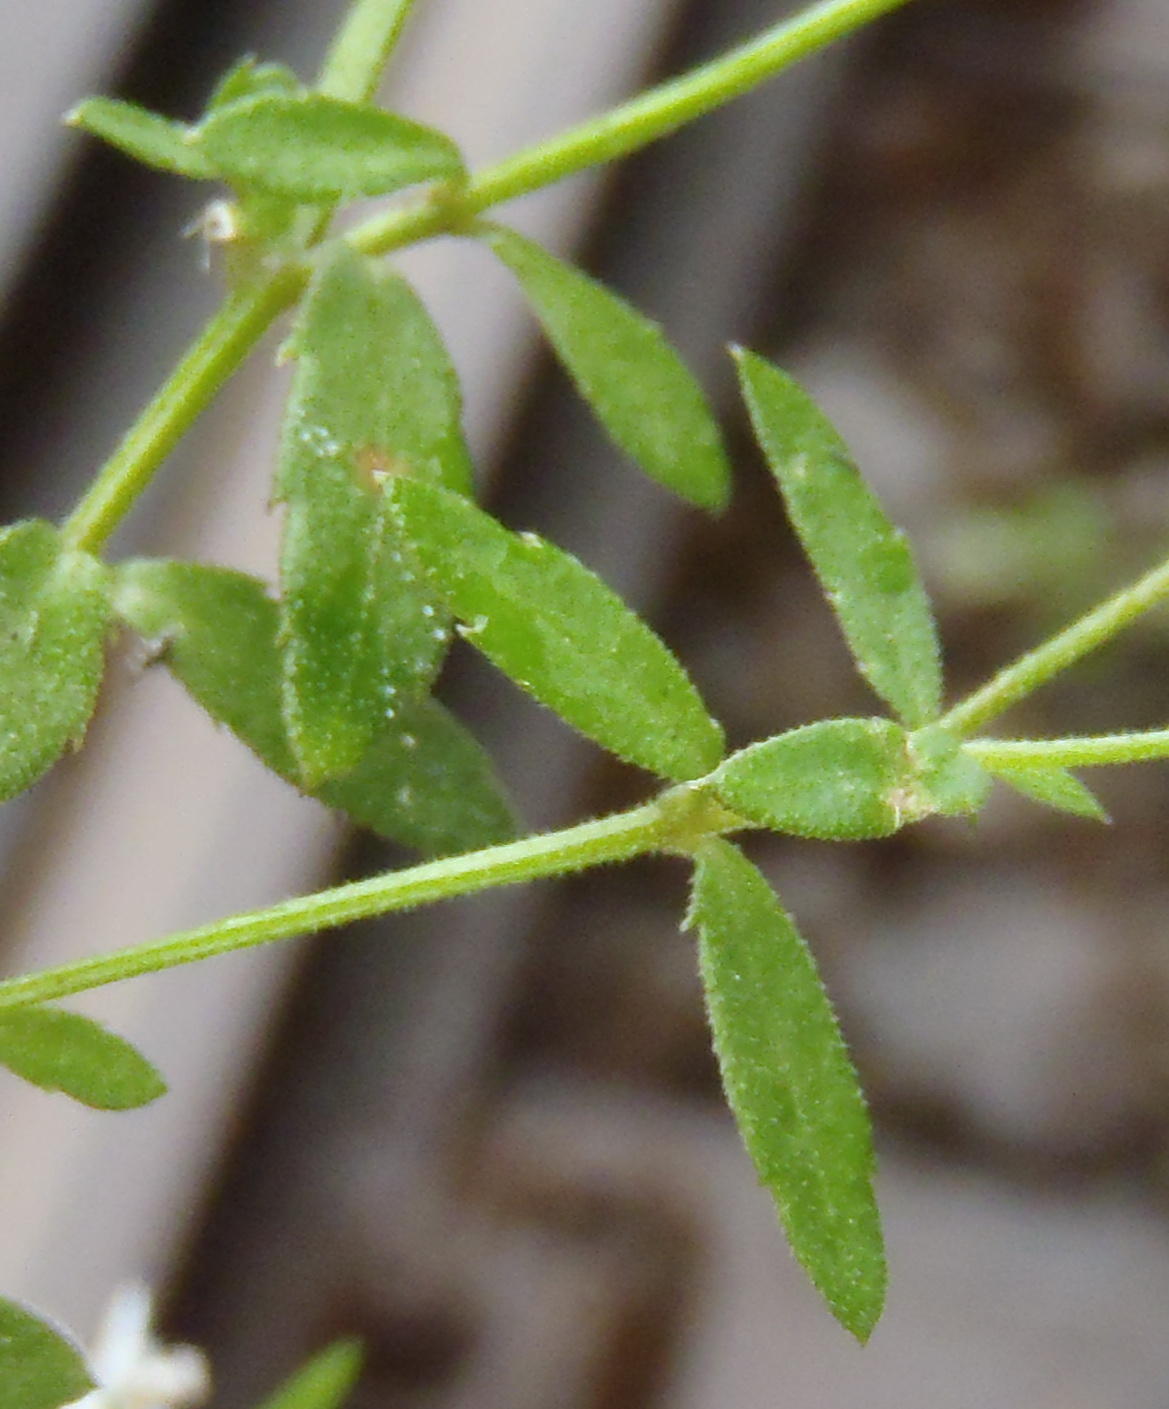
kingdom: Plantae
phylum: Tracheophyta
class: Magnoliopsida
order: Asterales
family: Campanulaceae
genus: Monopsis
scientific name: Monopsis alba
